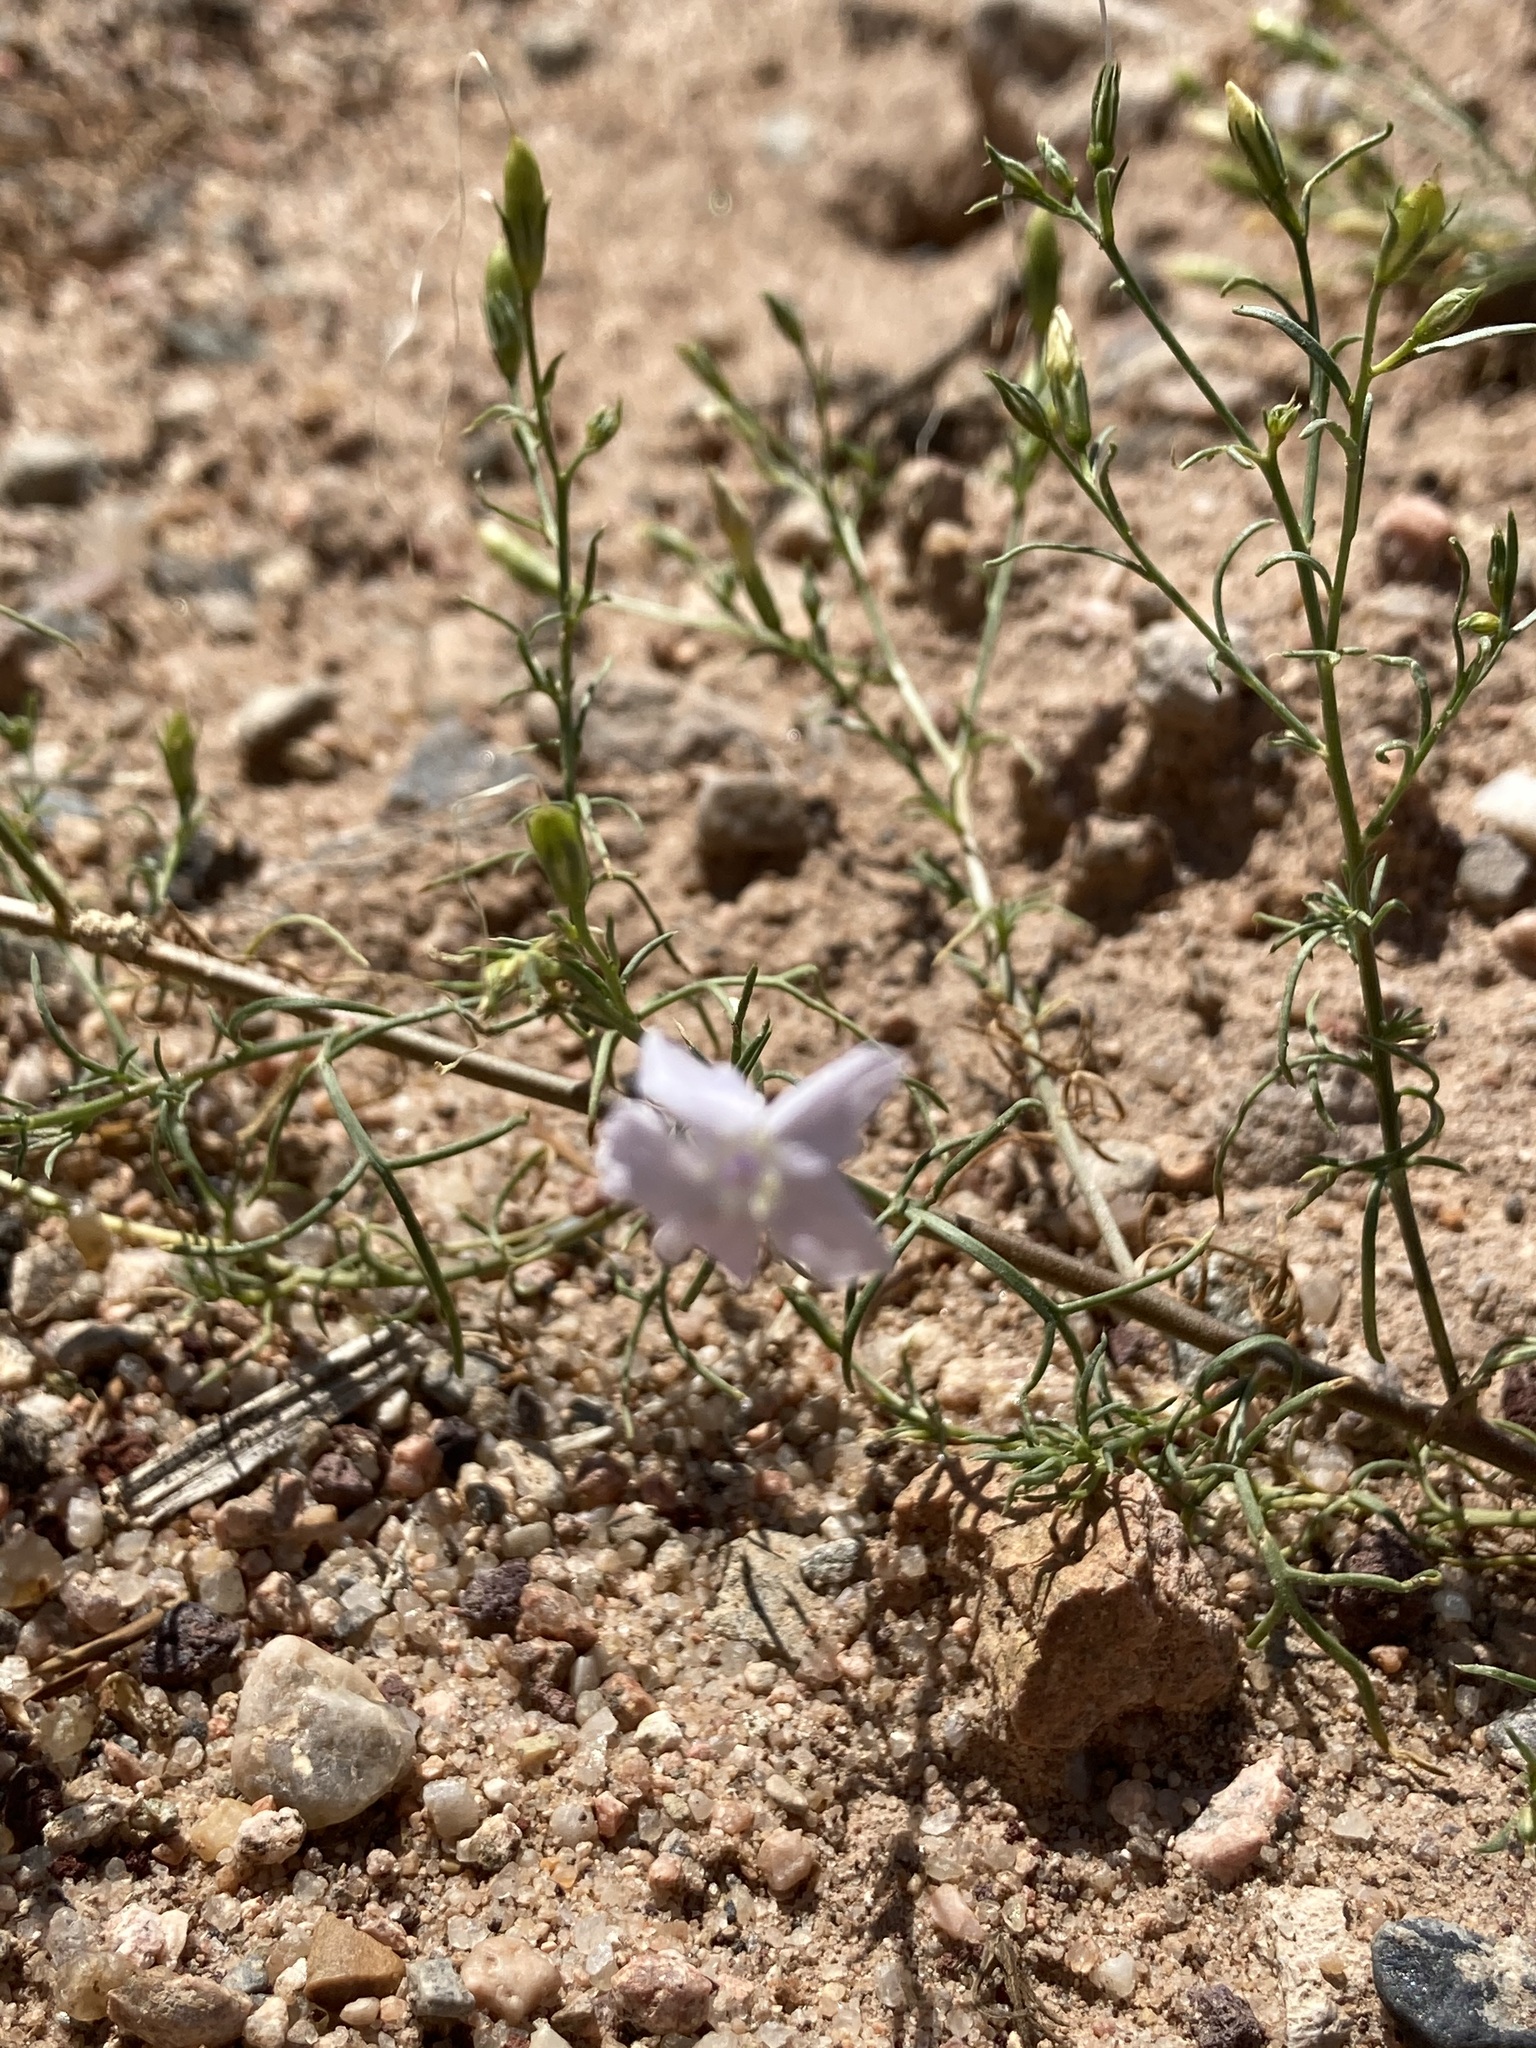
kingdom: Plantae
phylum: Tracheophyta
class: Magnoliopsida
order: Ericales
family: Polemoniaceae
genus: Ipomopsis
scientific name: Ipomopsis longiflora
